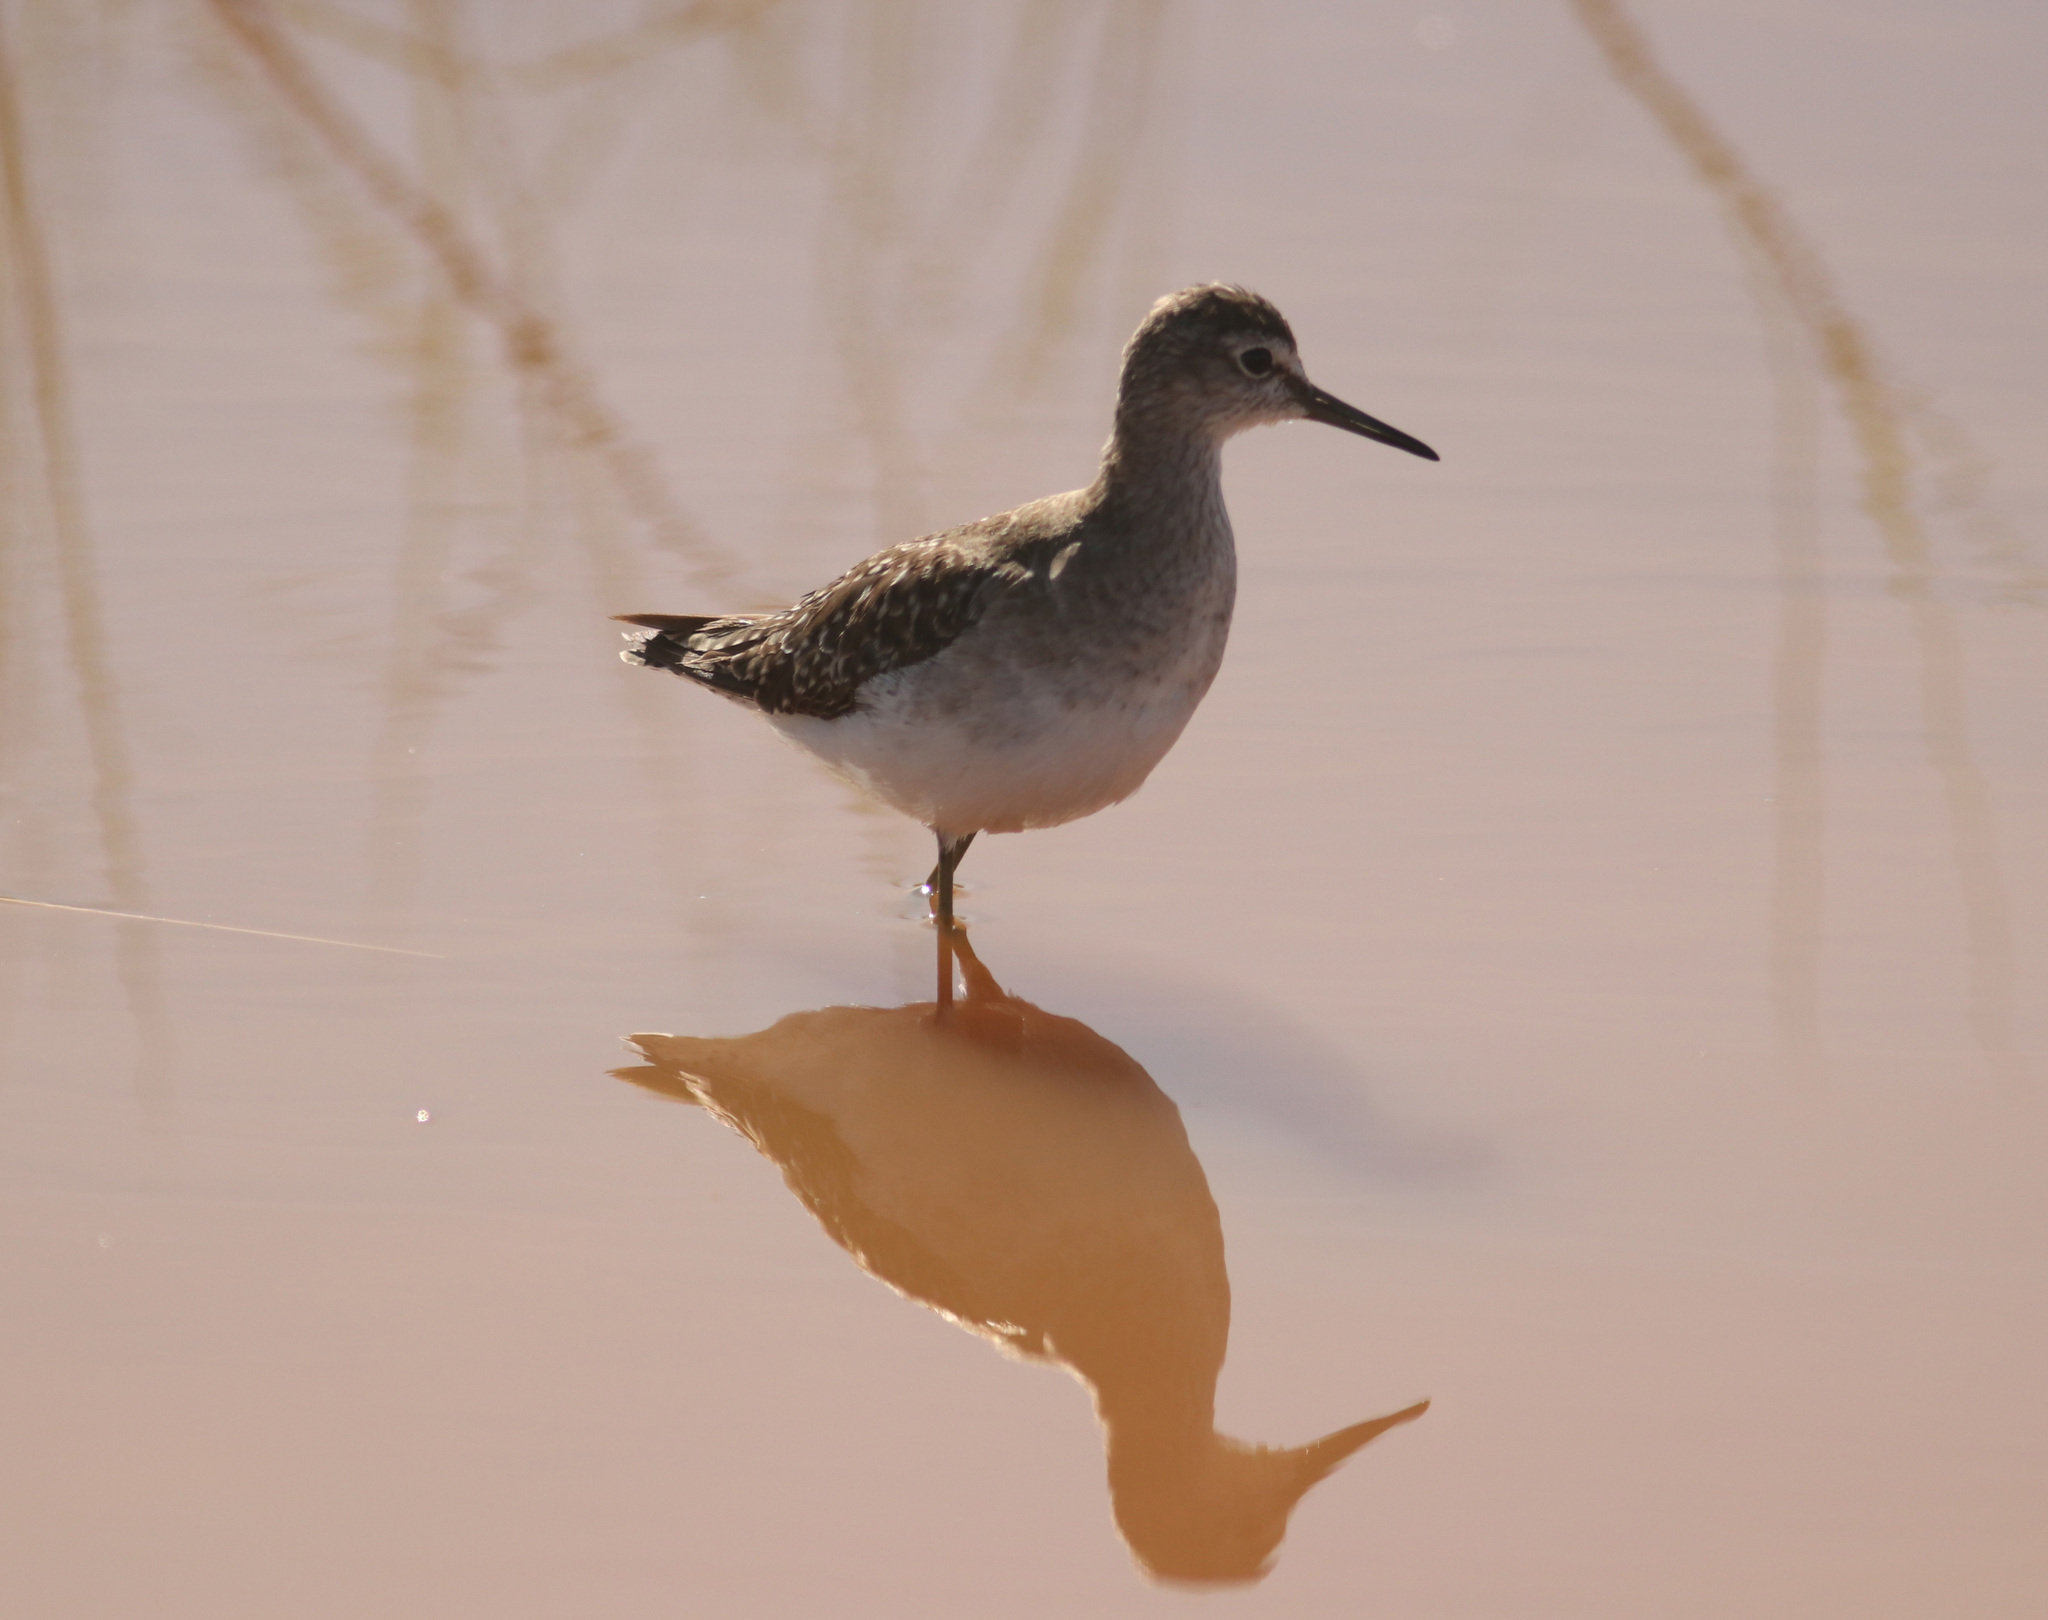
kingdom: Animalia
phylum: Chordata
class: Aves
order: Charadriiformes
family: Scolopacidae
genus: Tringa
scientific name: Tringa glareola
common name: Wood sandpiper
